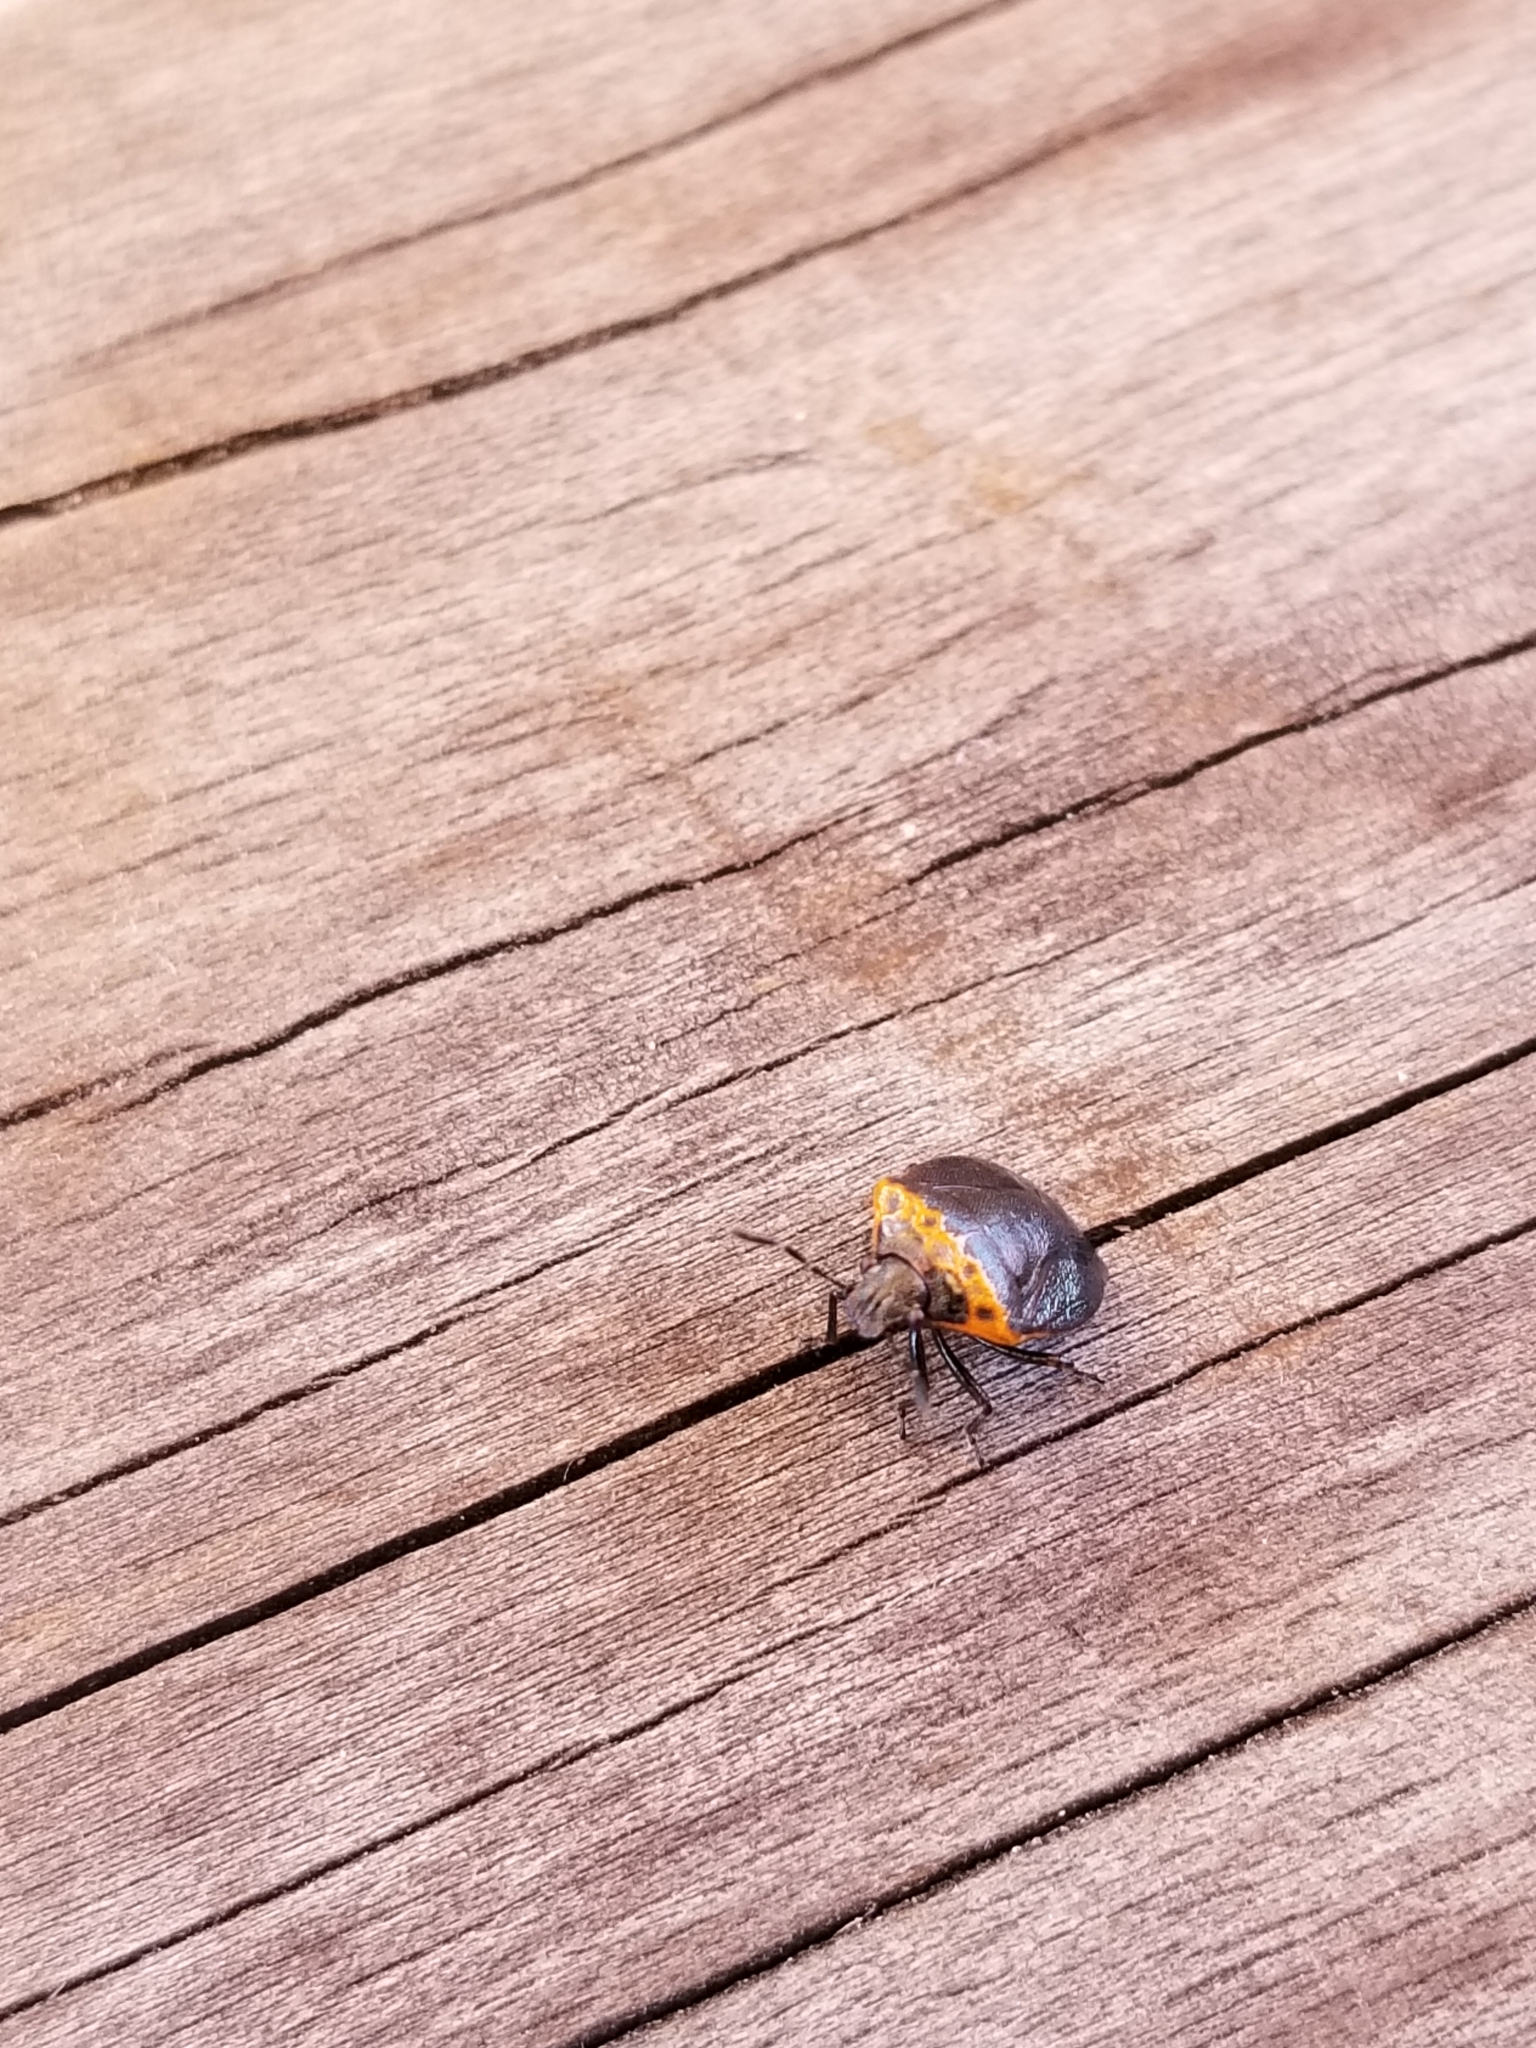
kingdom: Animalia
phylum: Arthropoda
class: Insecta
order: Hemiptera
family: Pentatomidae
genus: Cosmopepla
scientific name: Cosmopepla uhleri
